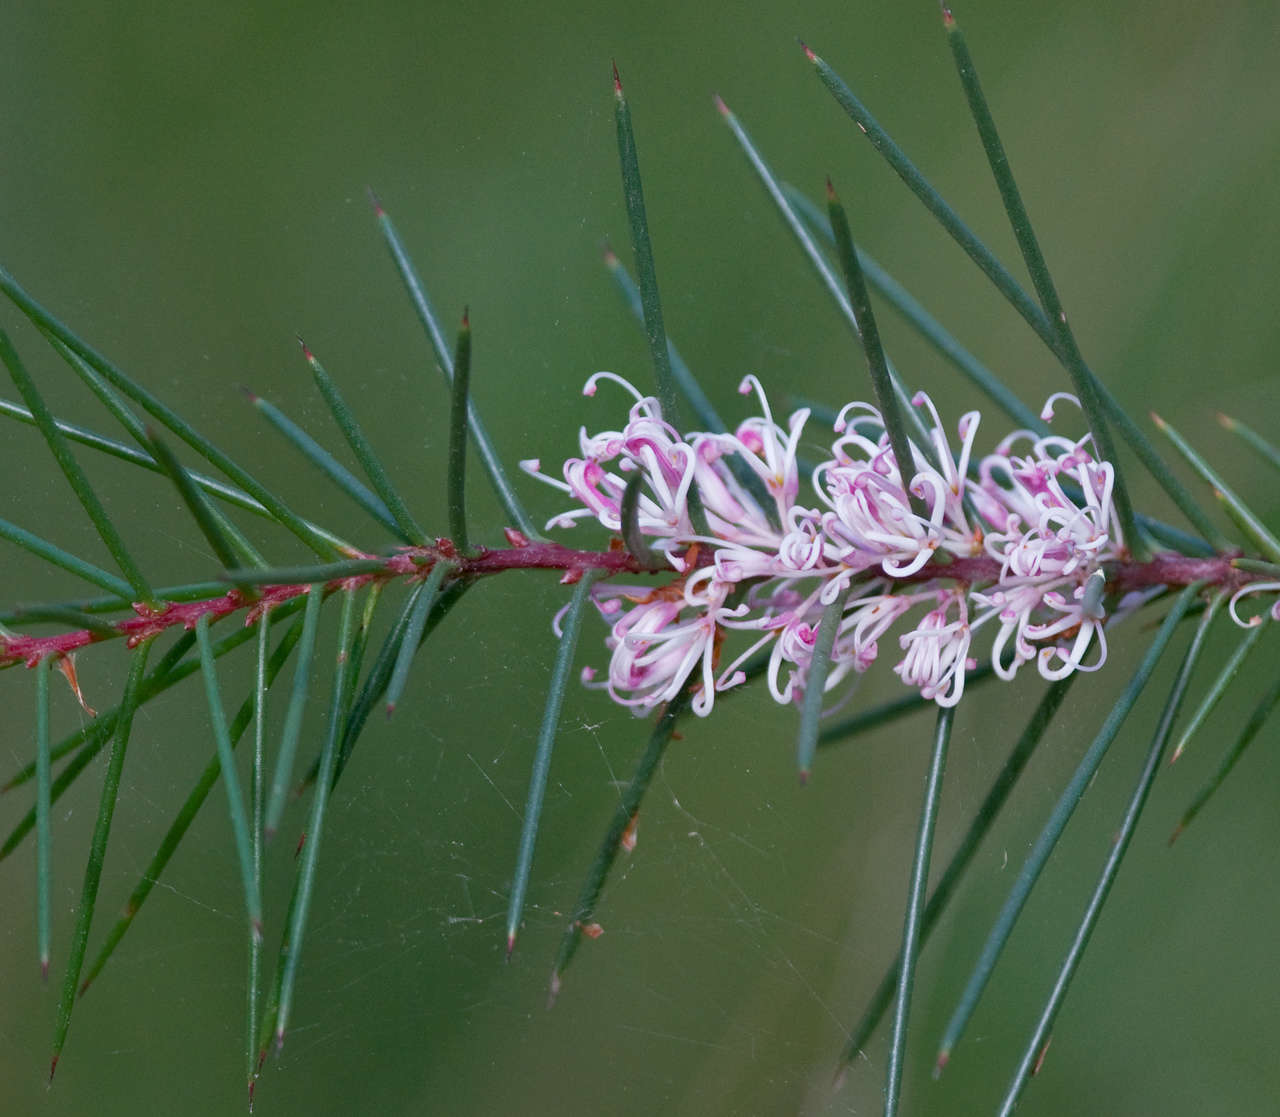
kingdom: Plantae
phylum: Tracheophyta
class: Magnoliopsida
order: Proteales
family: Proteaceae
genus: Hakea
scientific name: Hakea decurrens
